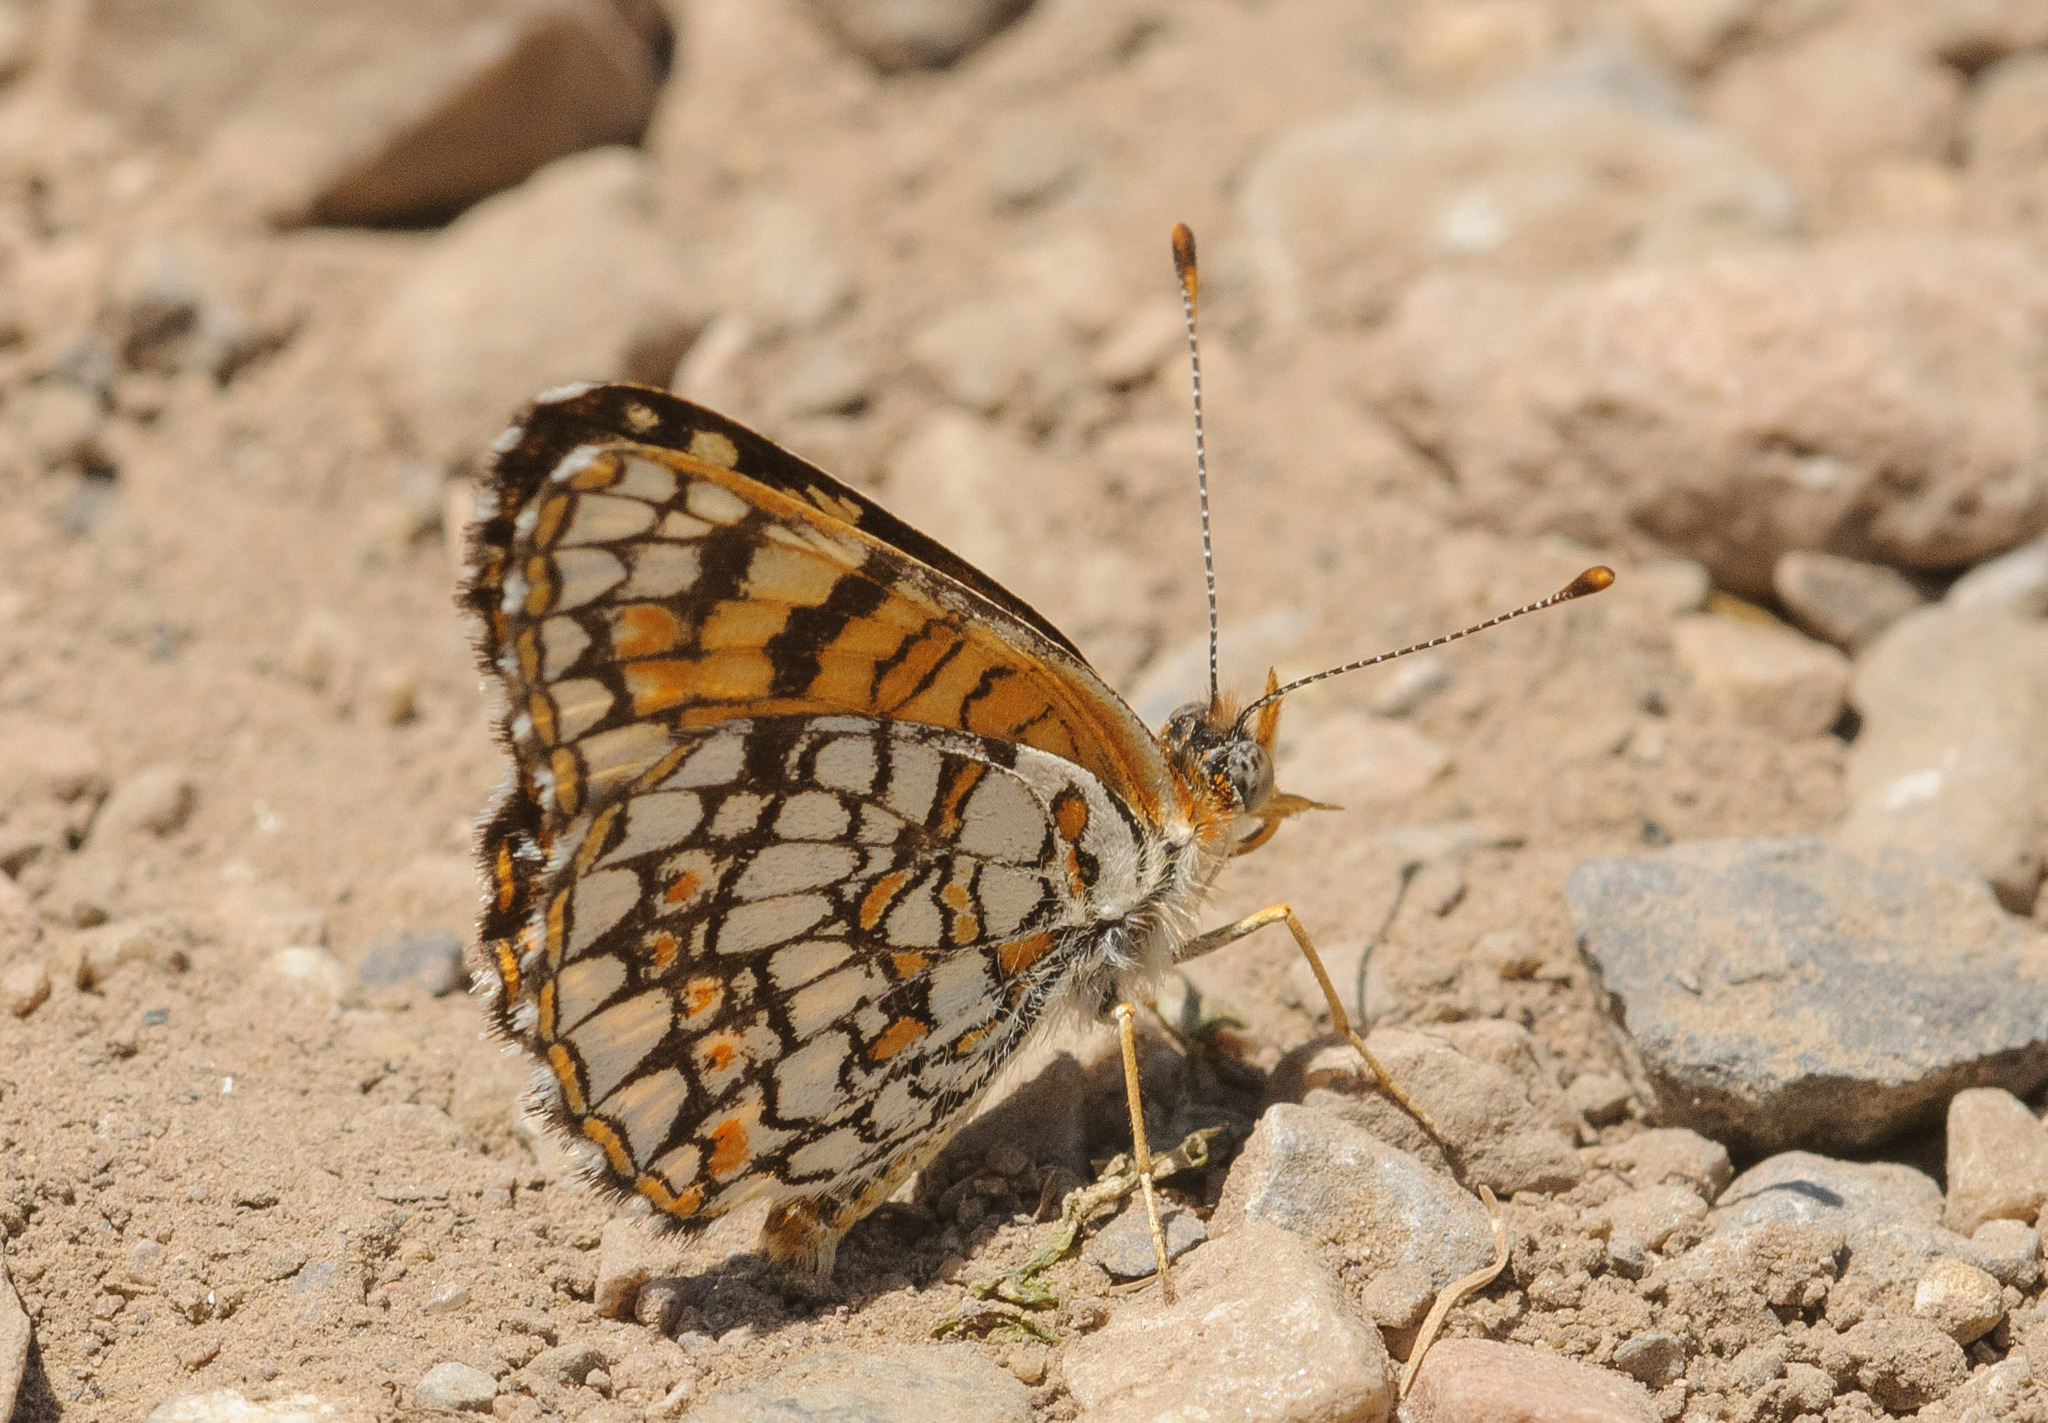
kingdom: Animalia
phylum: Arthropoda
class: Insecta
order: Lepidoptera
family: Nymphalidae
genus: Chlosyne
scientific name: Chlosyne acastus
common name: Sagebrush checkerspot
